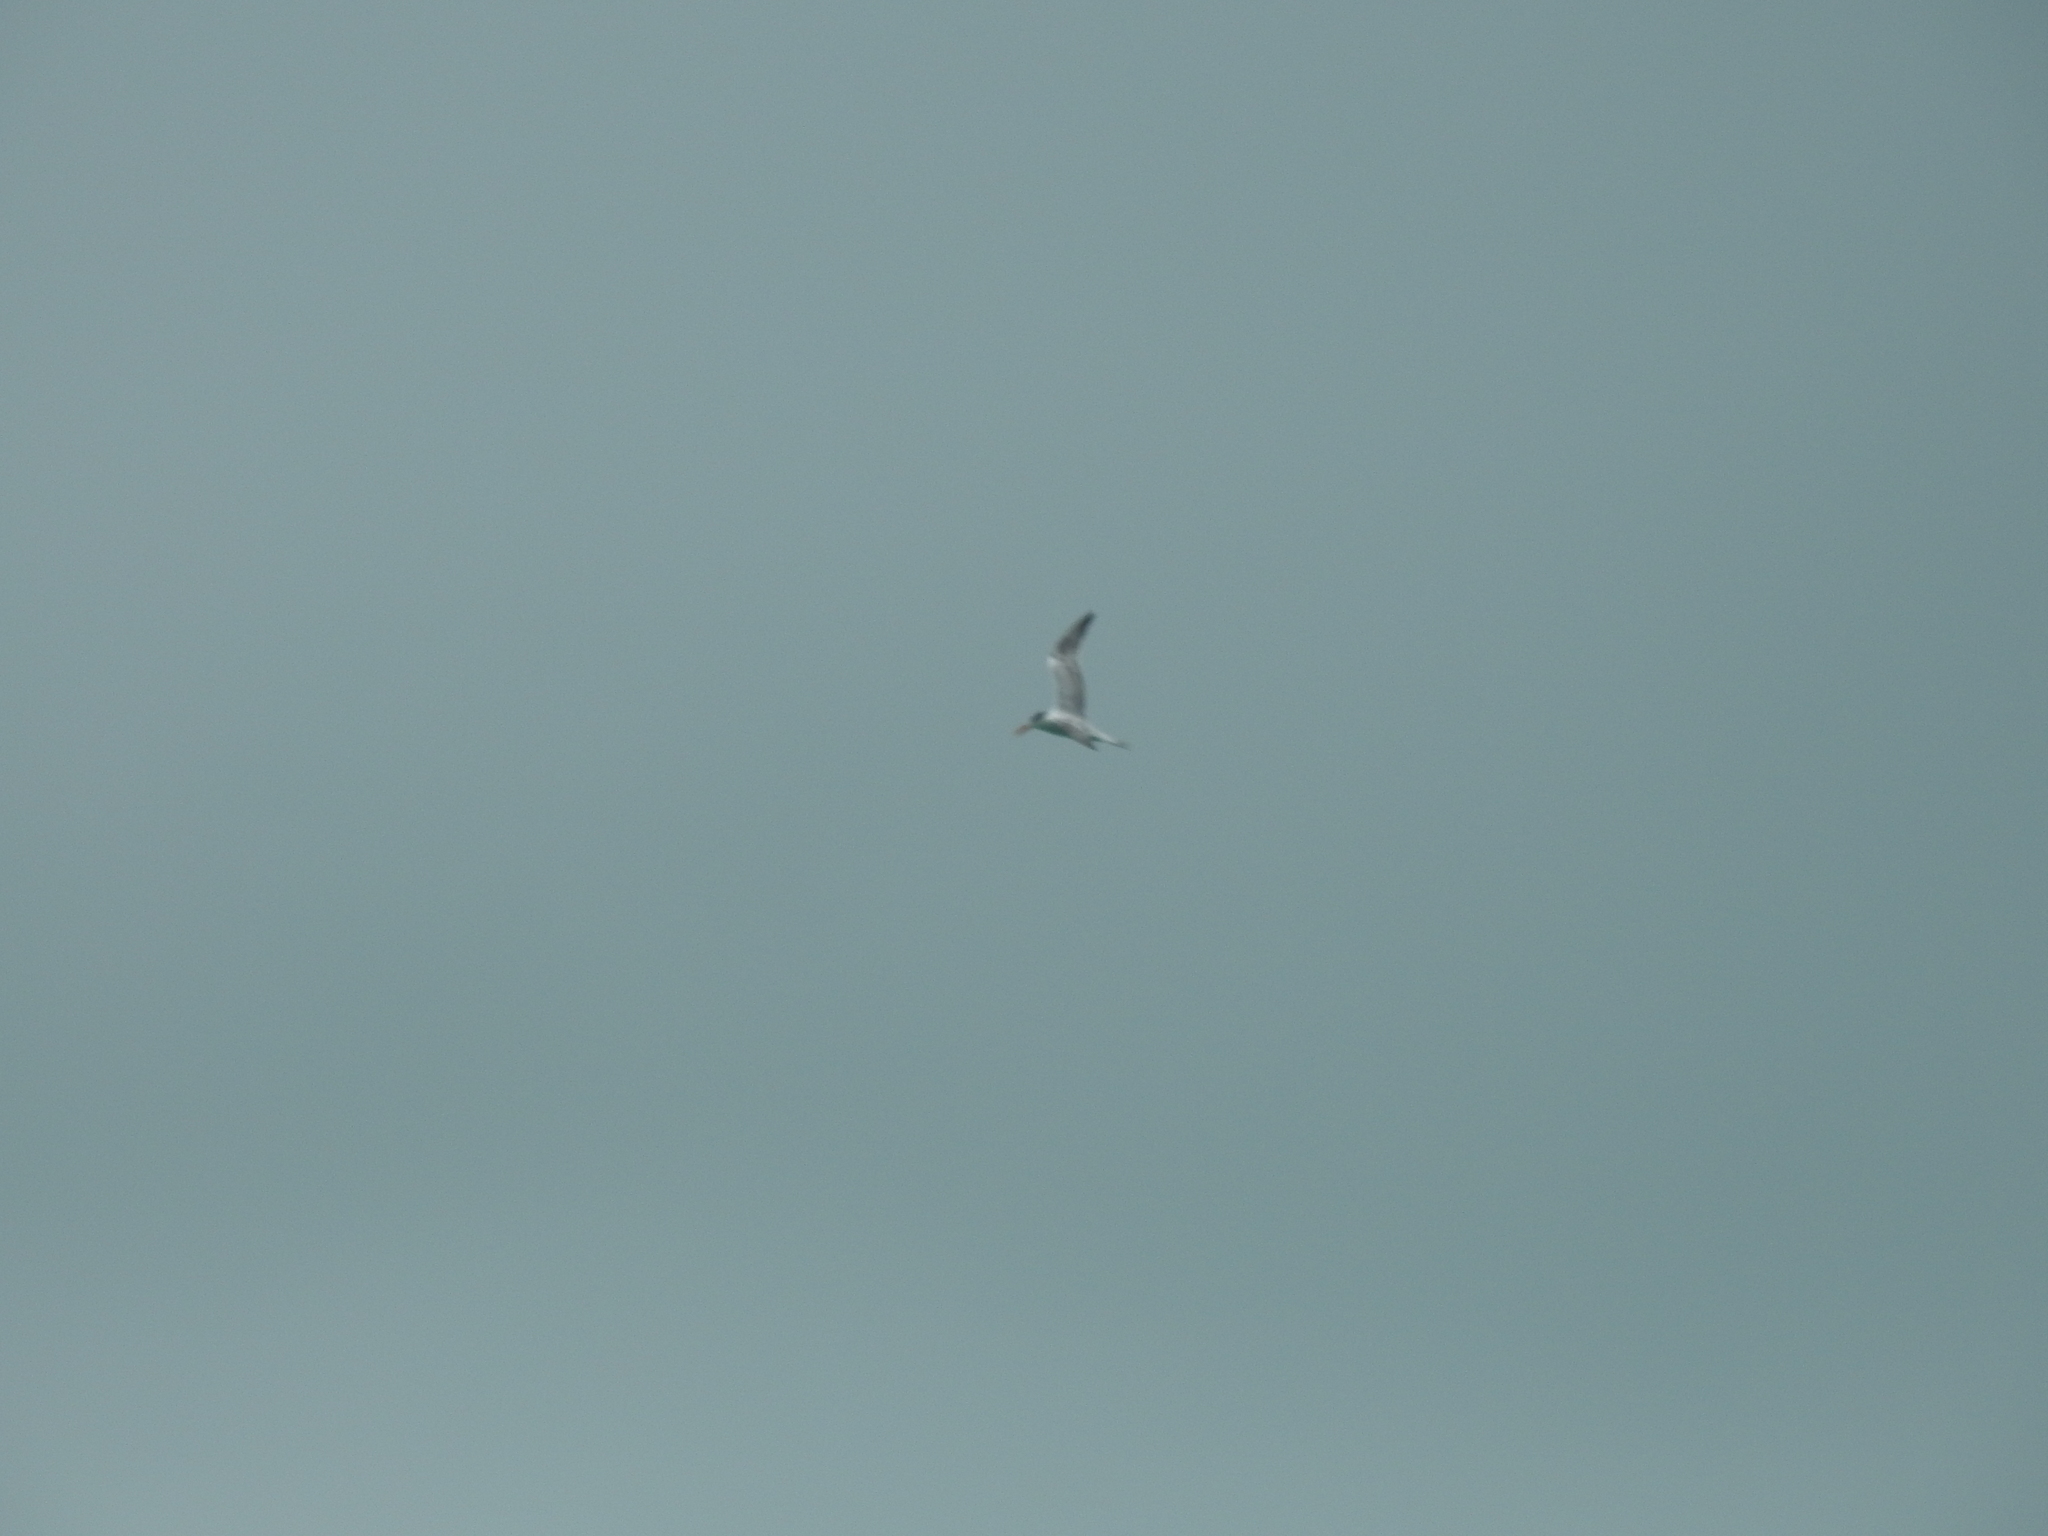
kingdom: Animalia
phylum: Chordata
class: Aves
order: Charadriiformes
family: Laridae
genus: Thalasseus
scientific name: Thalasseus maximus
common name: Royal tern
